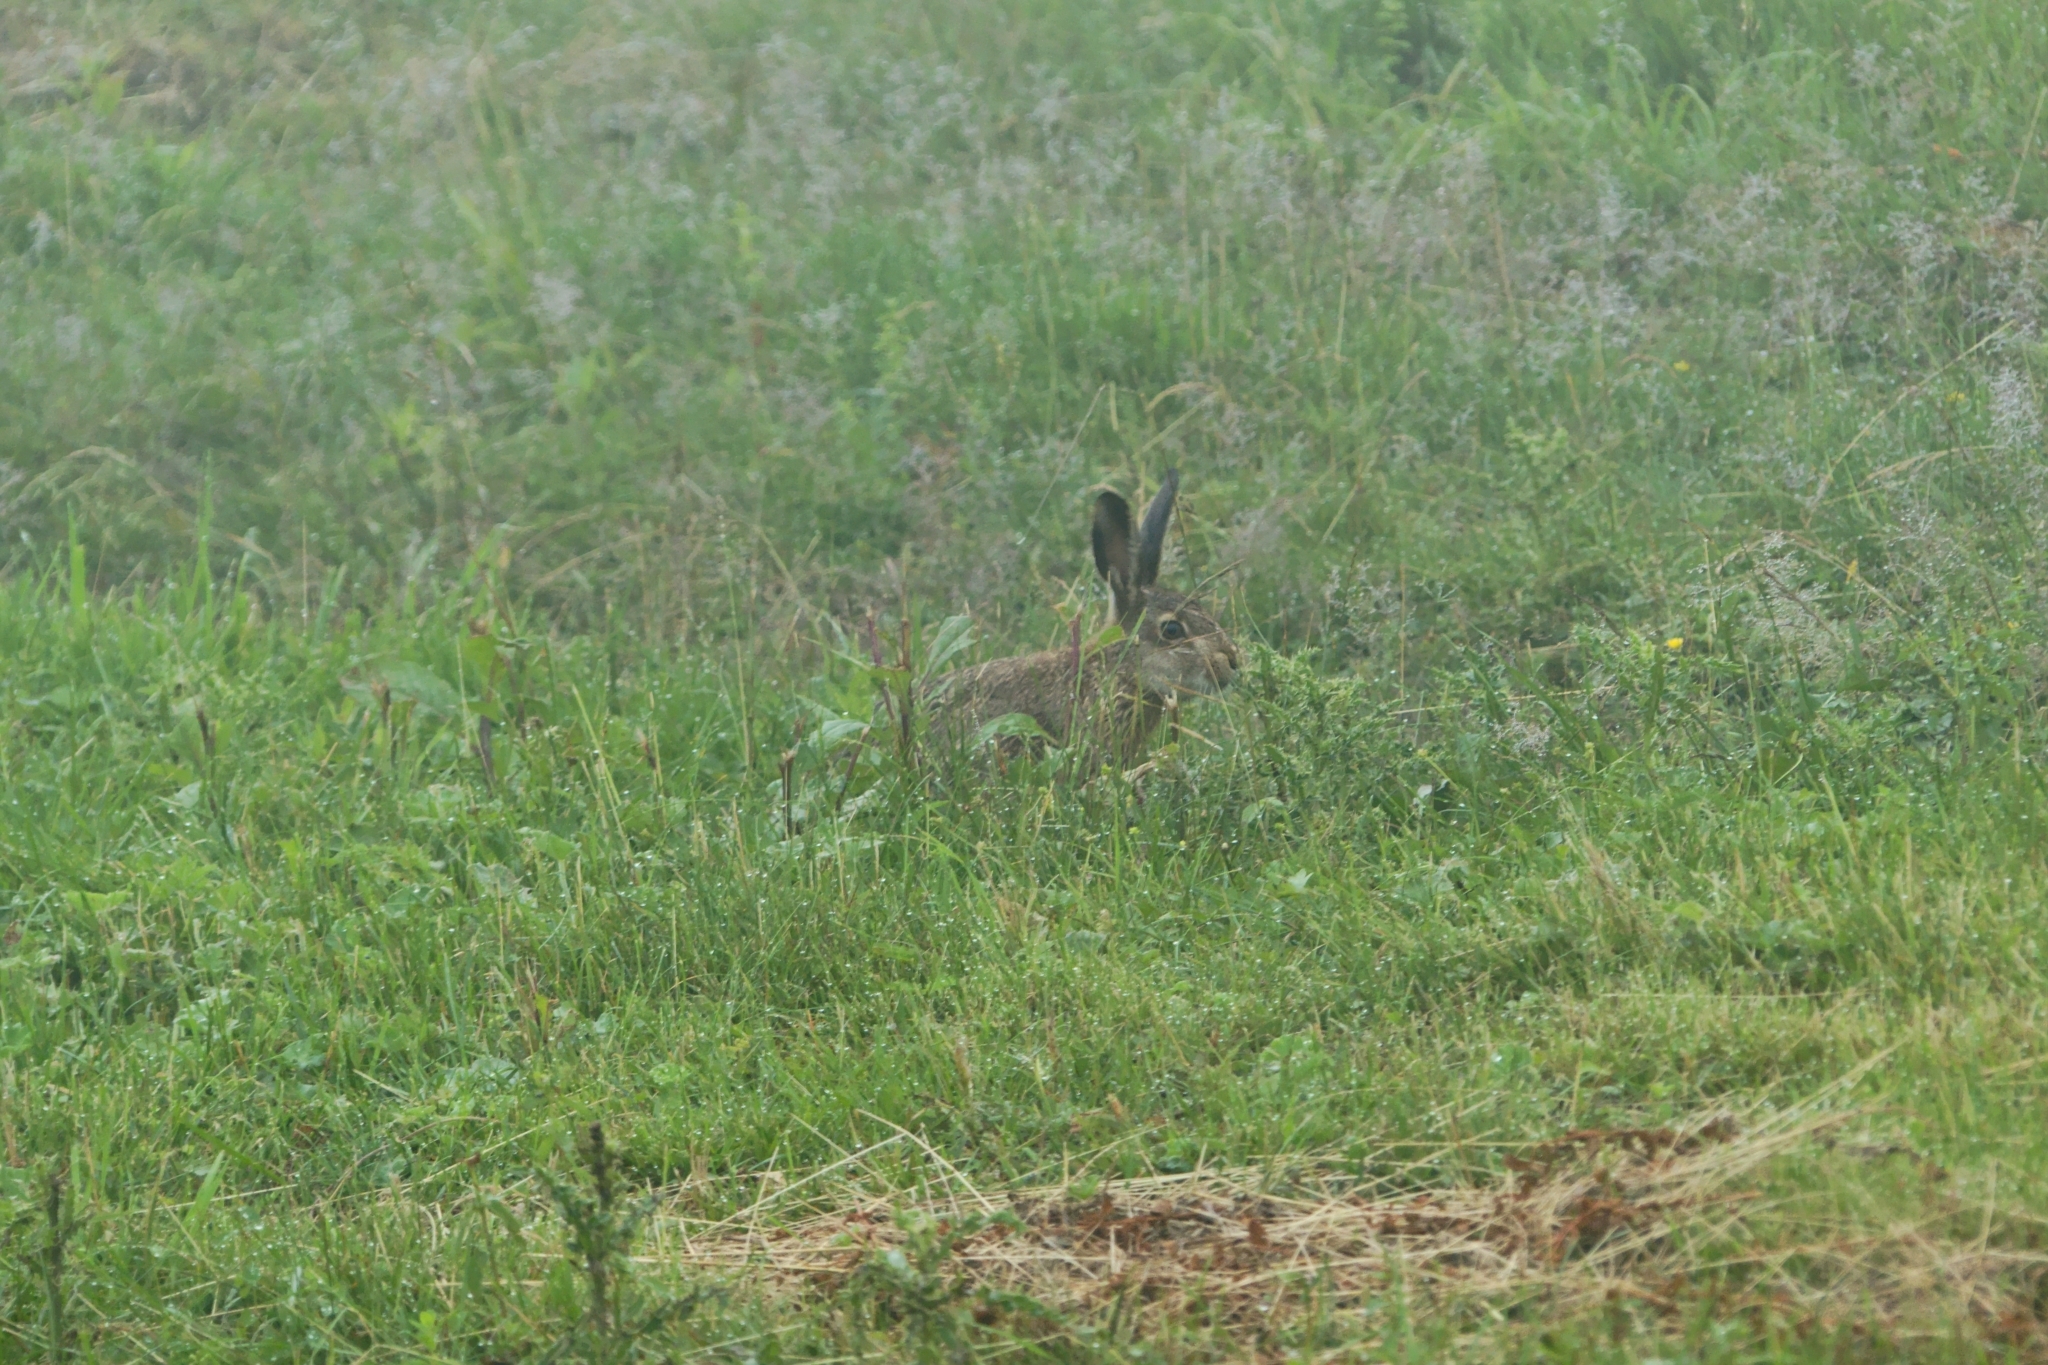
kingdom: Animalia
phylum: Chordata
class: Mammalia
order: Lagomorpha
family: Leporidae
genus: Lepus
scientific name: Lepus europaeus
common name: European hare
